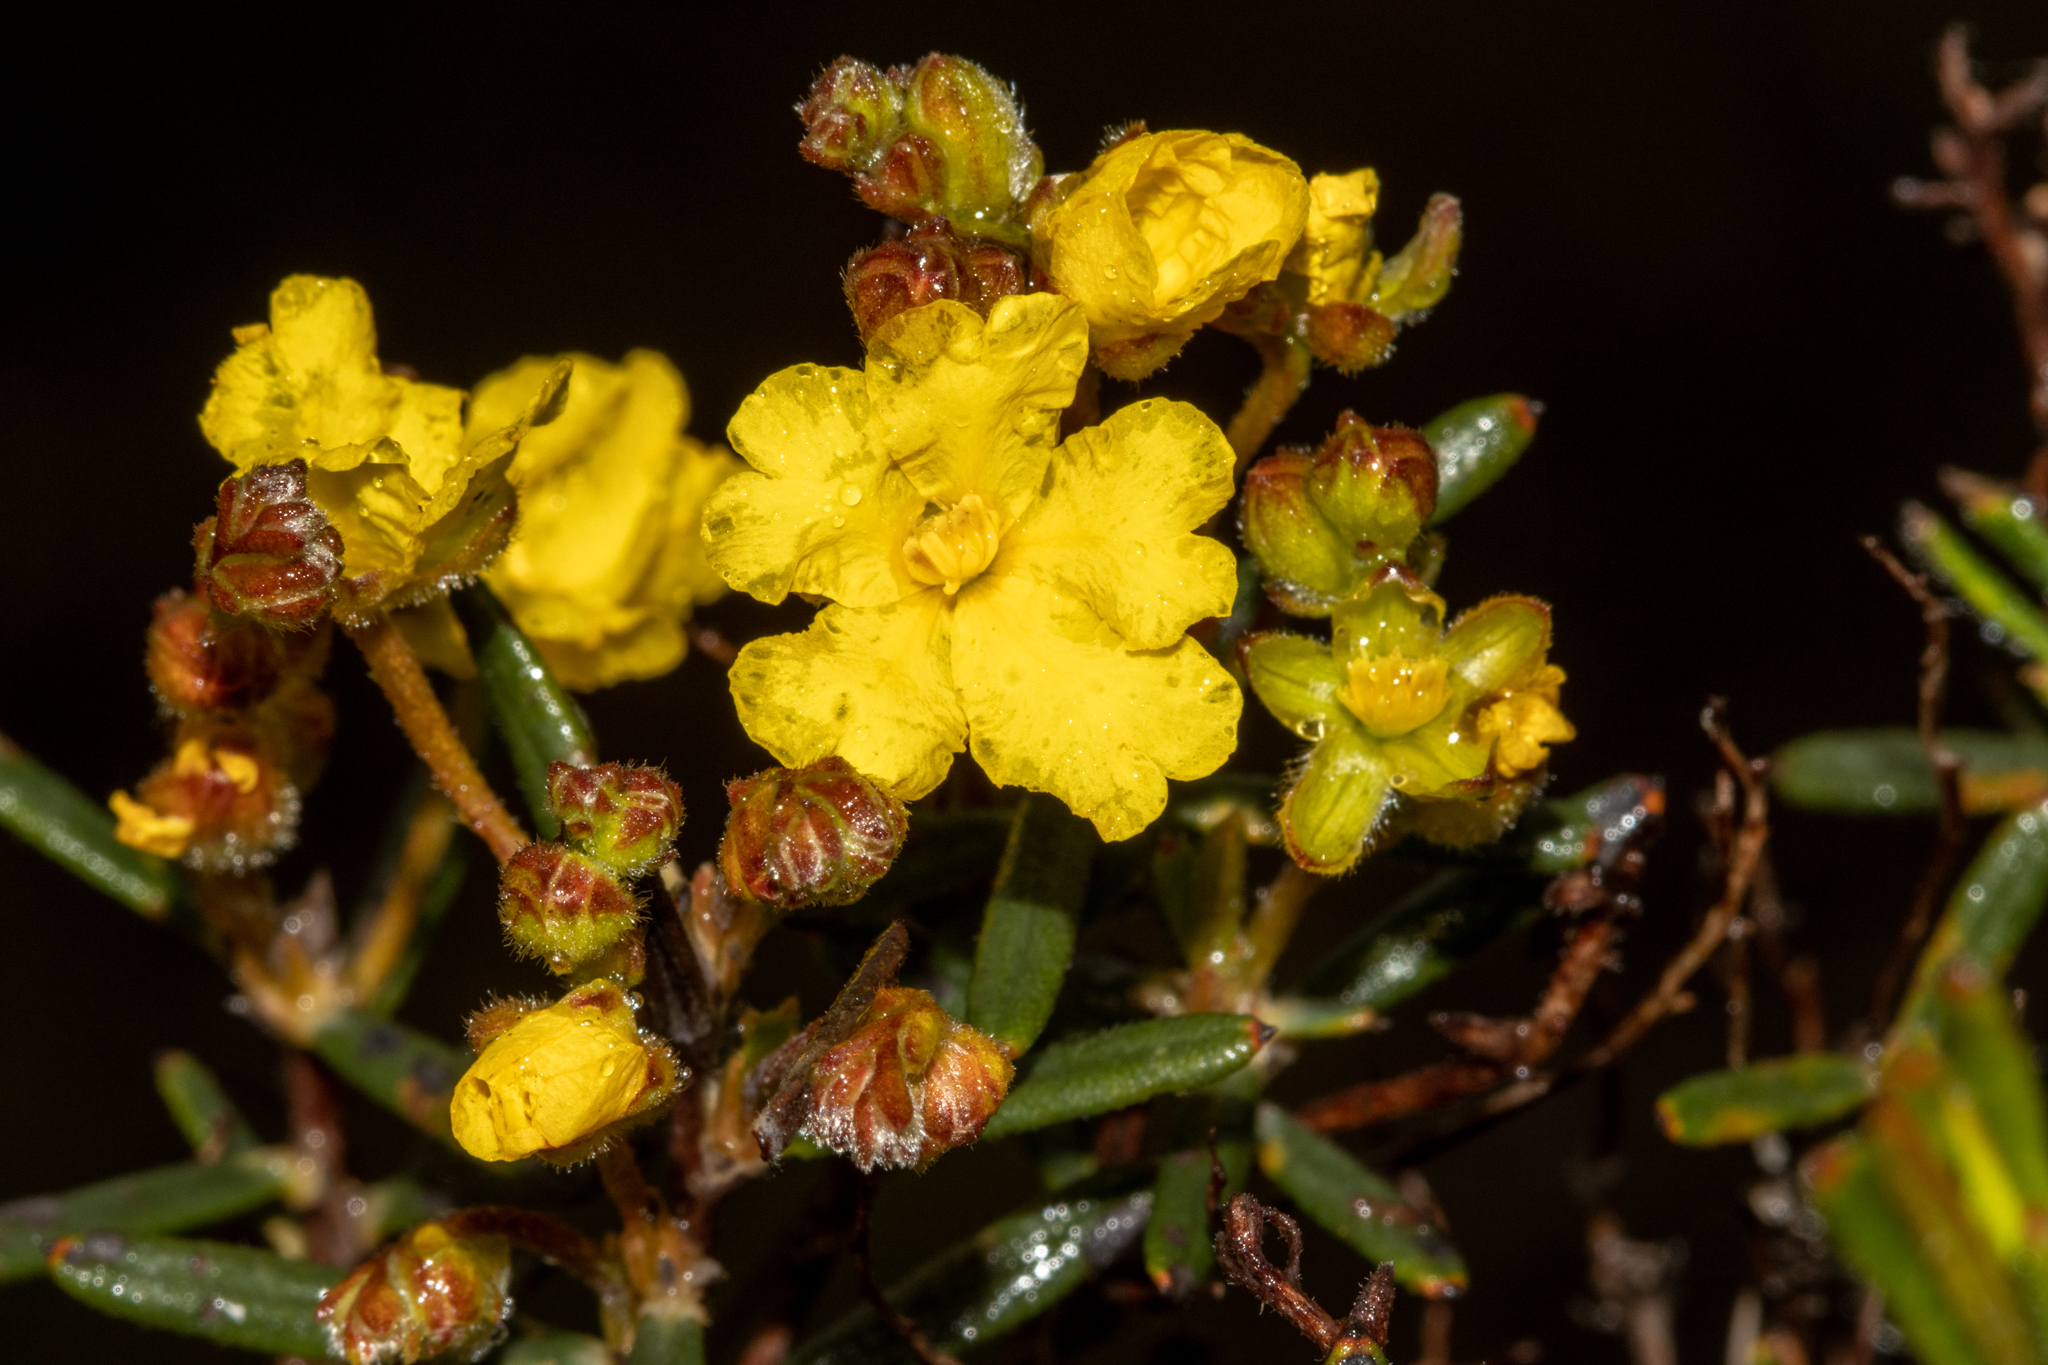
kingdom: Plantae
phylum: Tracheophyta
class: Magnoliopsida
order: Dilleniales
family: Dilleniaceae
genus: Hibbertia
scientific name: Hibbertia polystachya
